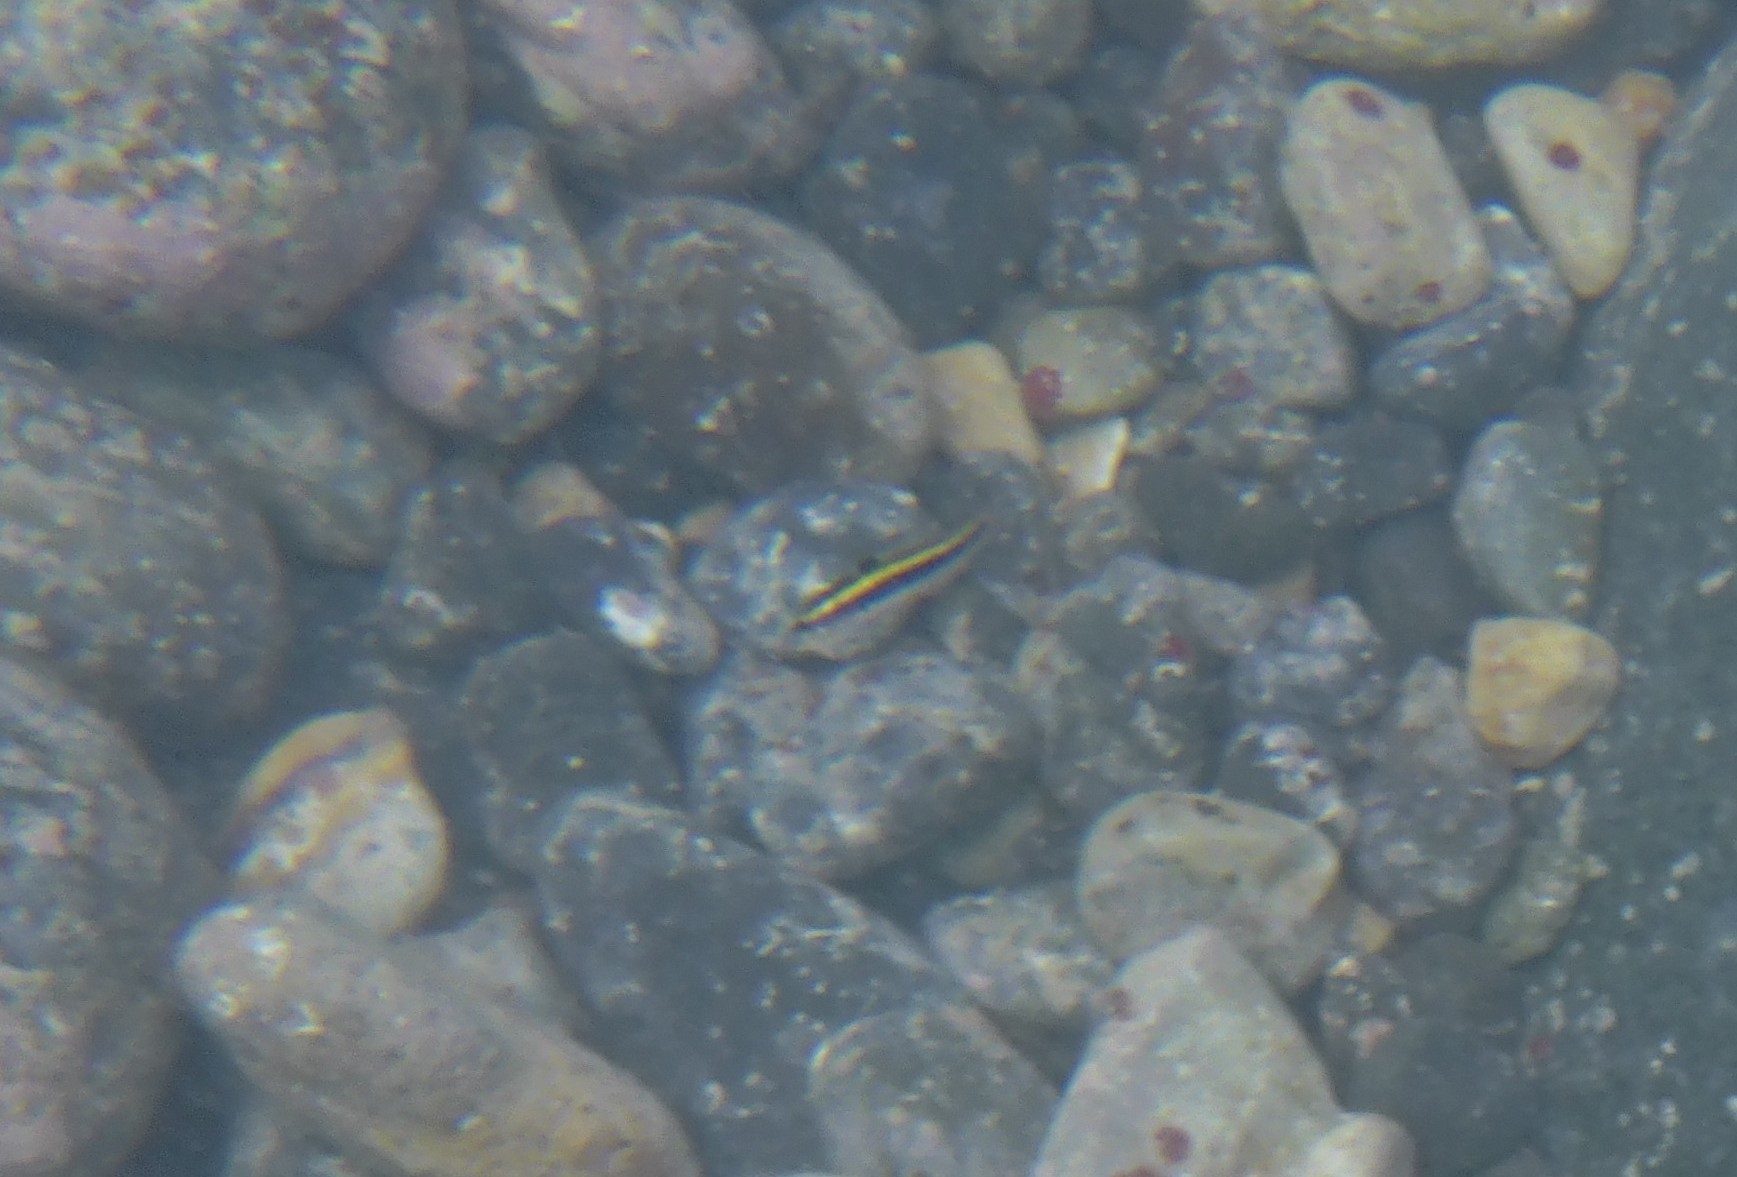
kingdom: Animalia
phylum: Chordata
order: Perciformes
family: Labridae
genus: Thalassoma
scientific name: Thalassoma bifasciatum
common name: Bluehead wrasse
